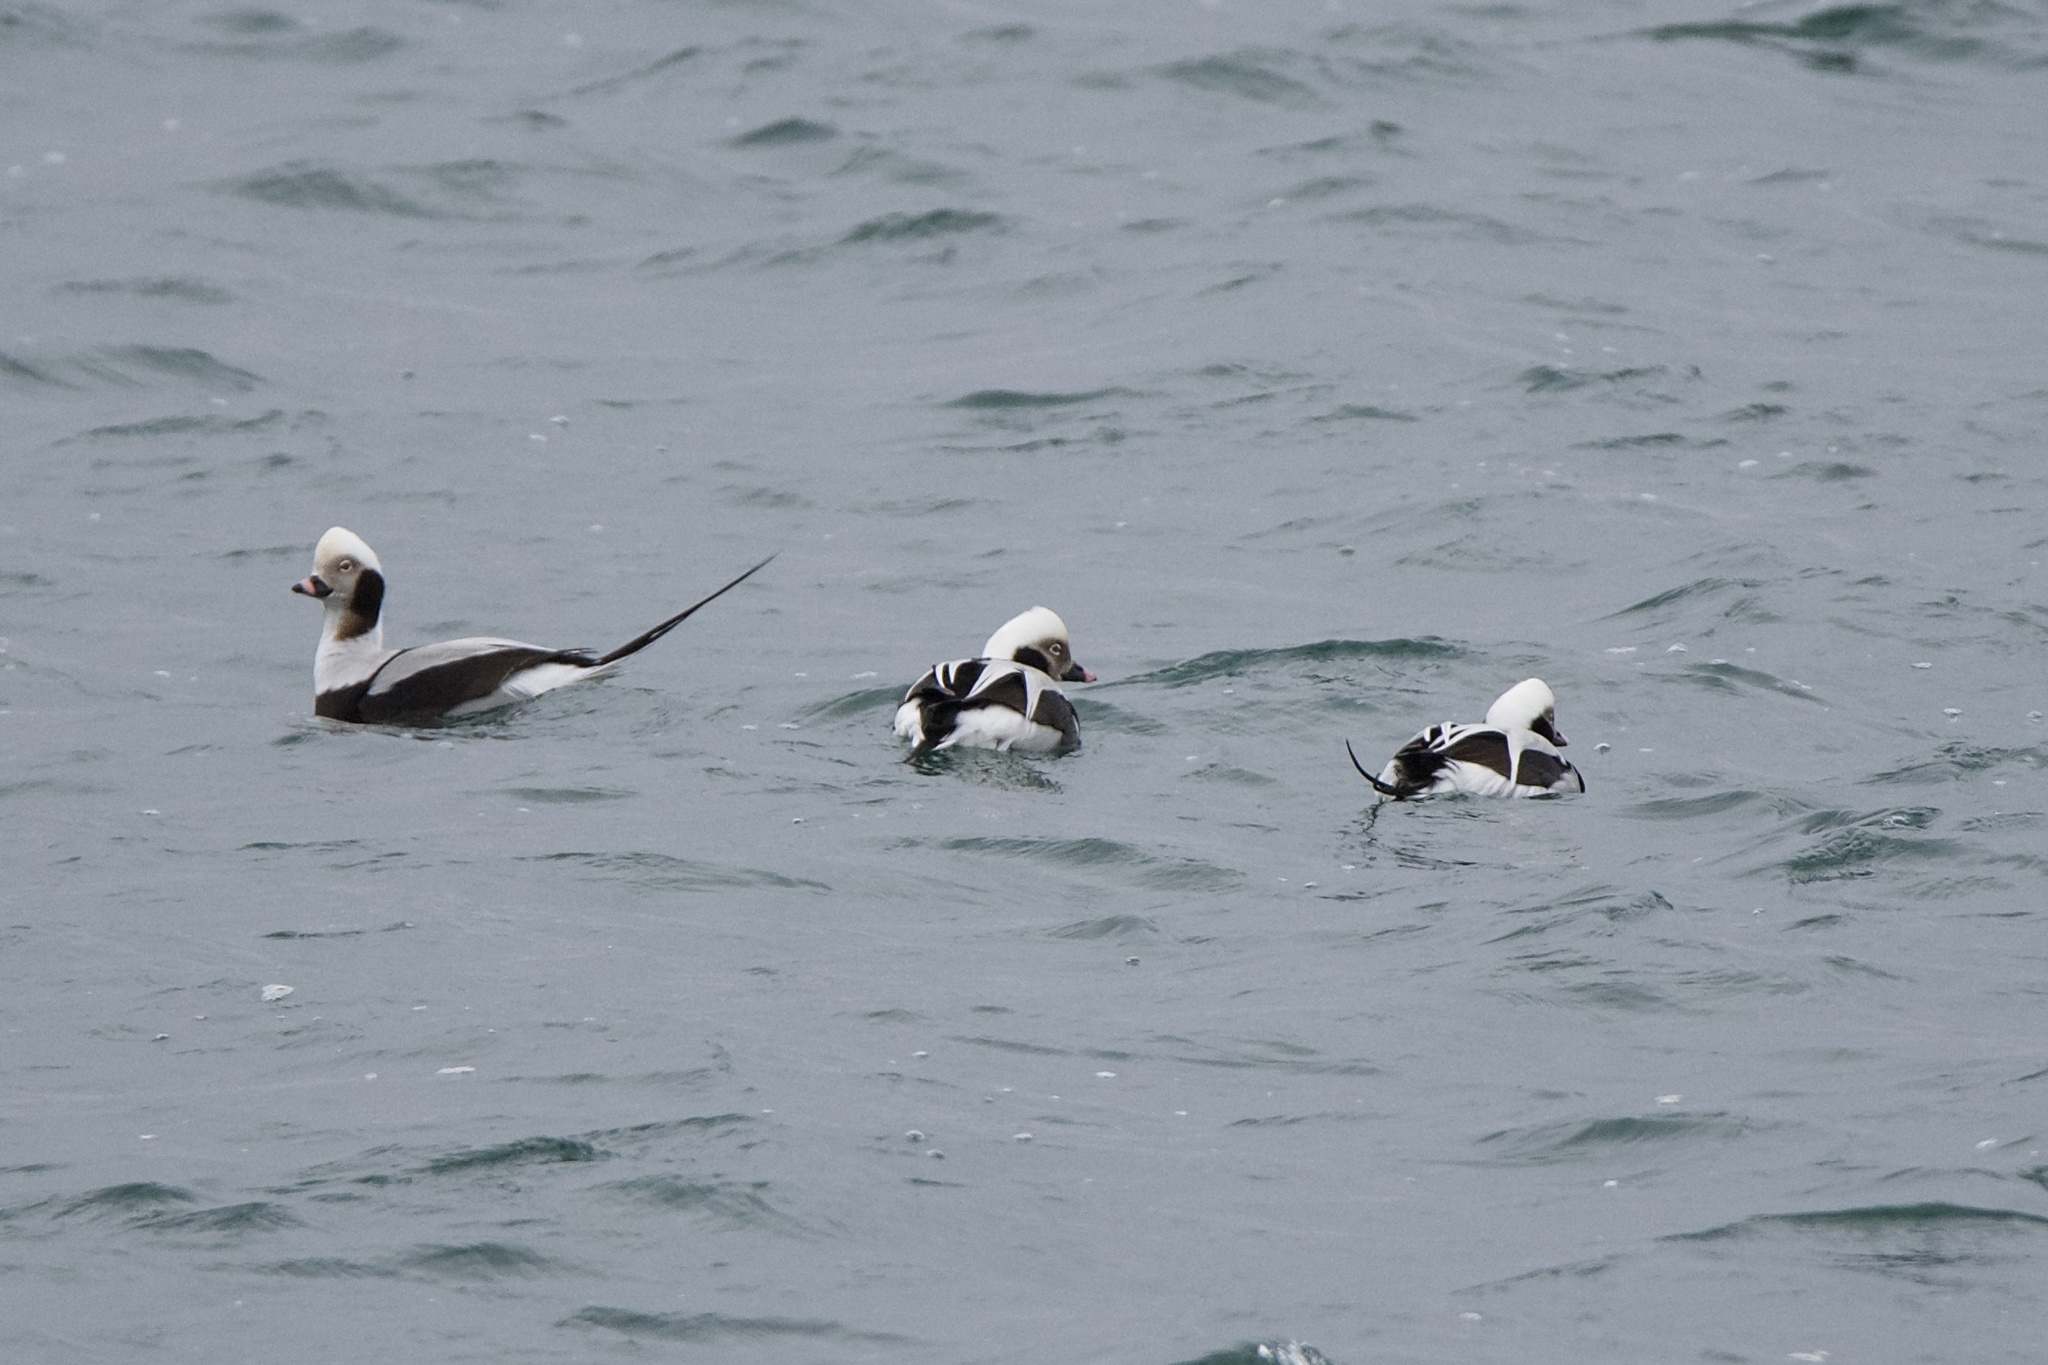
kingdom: Animalia
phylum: Chordata
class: Aves
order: Anseriformes
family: Anatidae
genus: Clangula
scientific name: Clangula hyemalis
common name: Long-tailed duck
